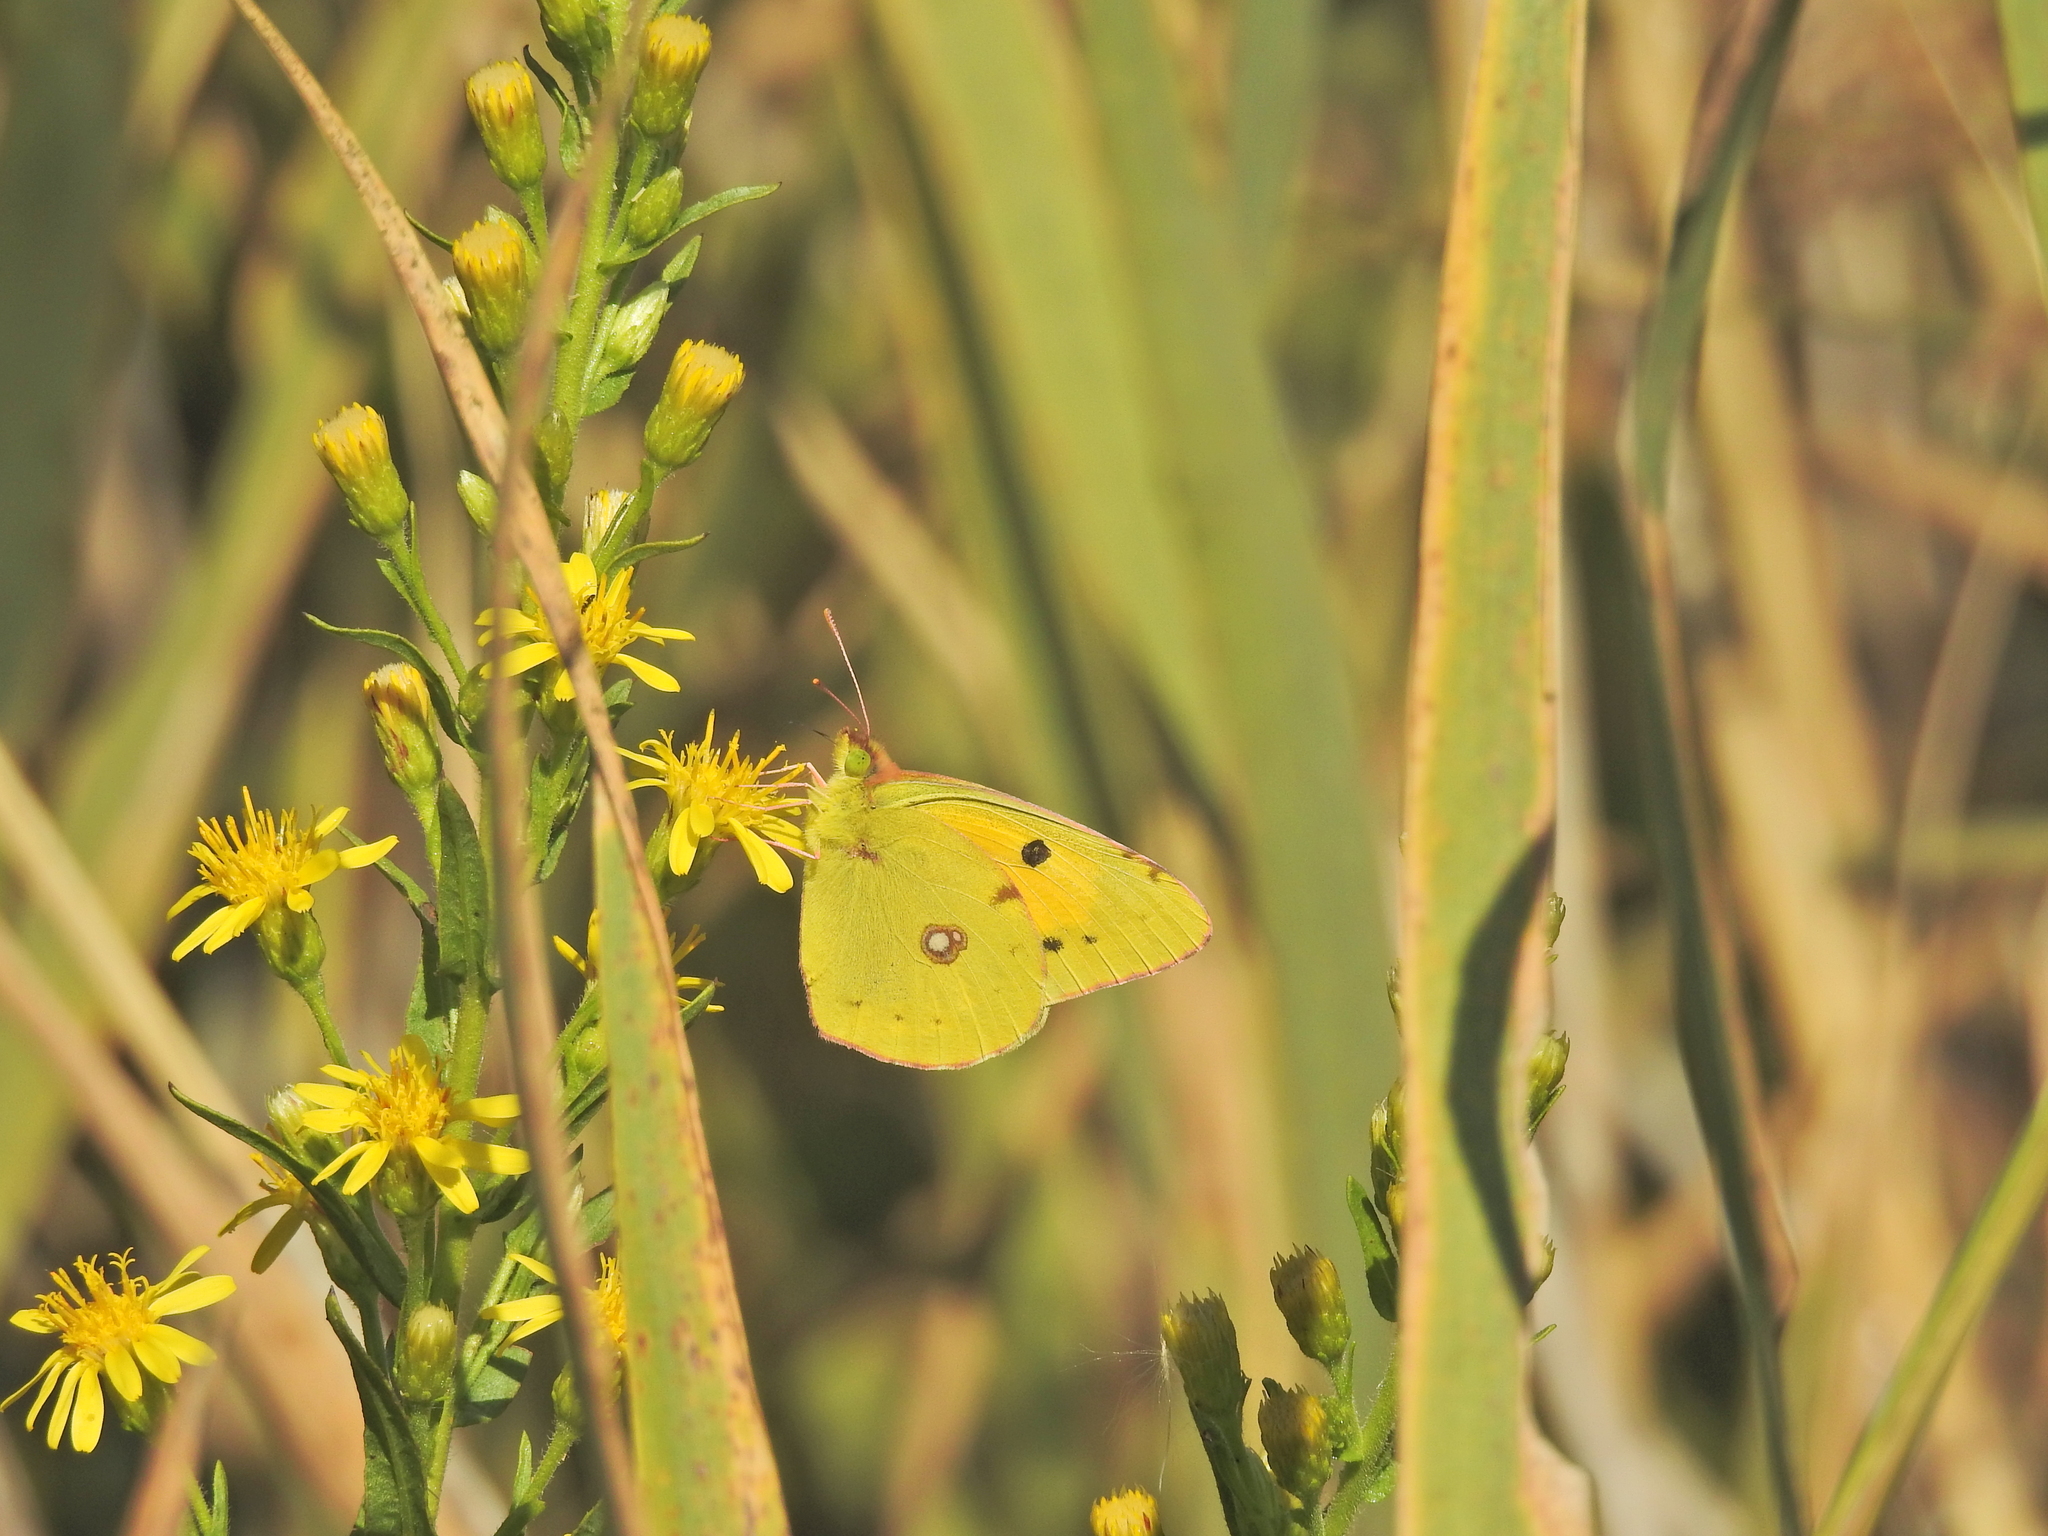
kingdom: Animalia
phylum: Arthropoda
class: Insecta
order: Lepidoptera
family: Pieridae
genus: Colias
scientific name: Colias croceus
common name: Clouded yellow
